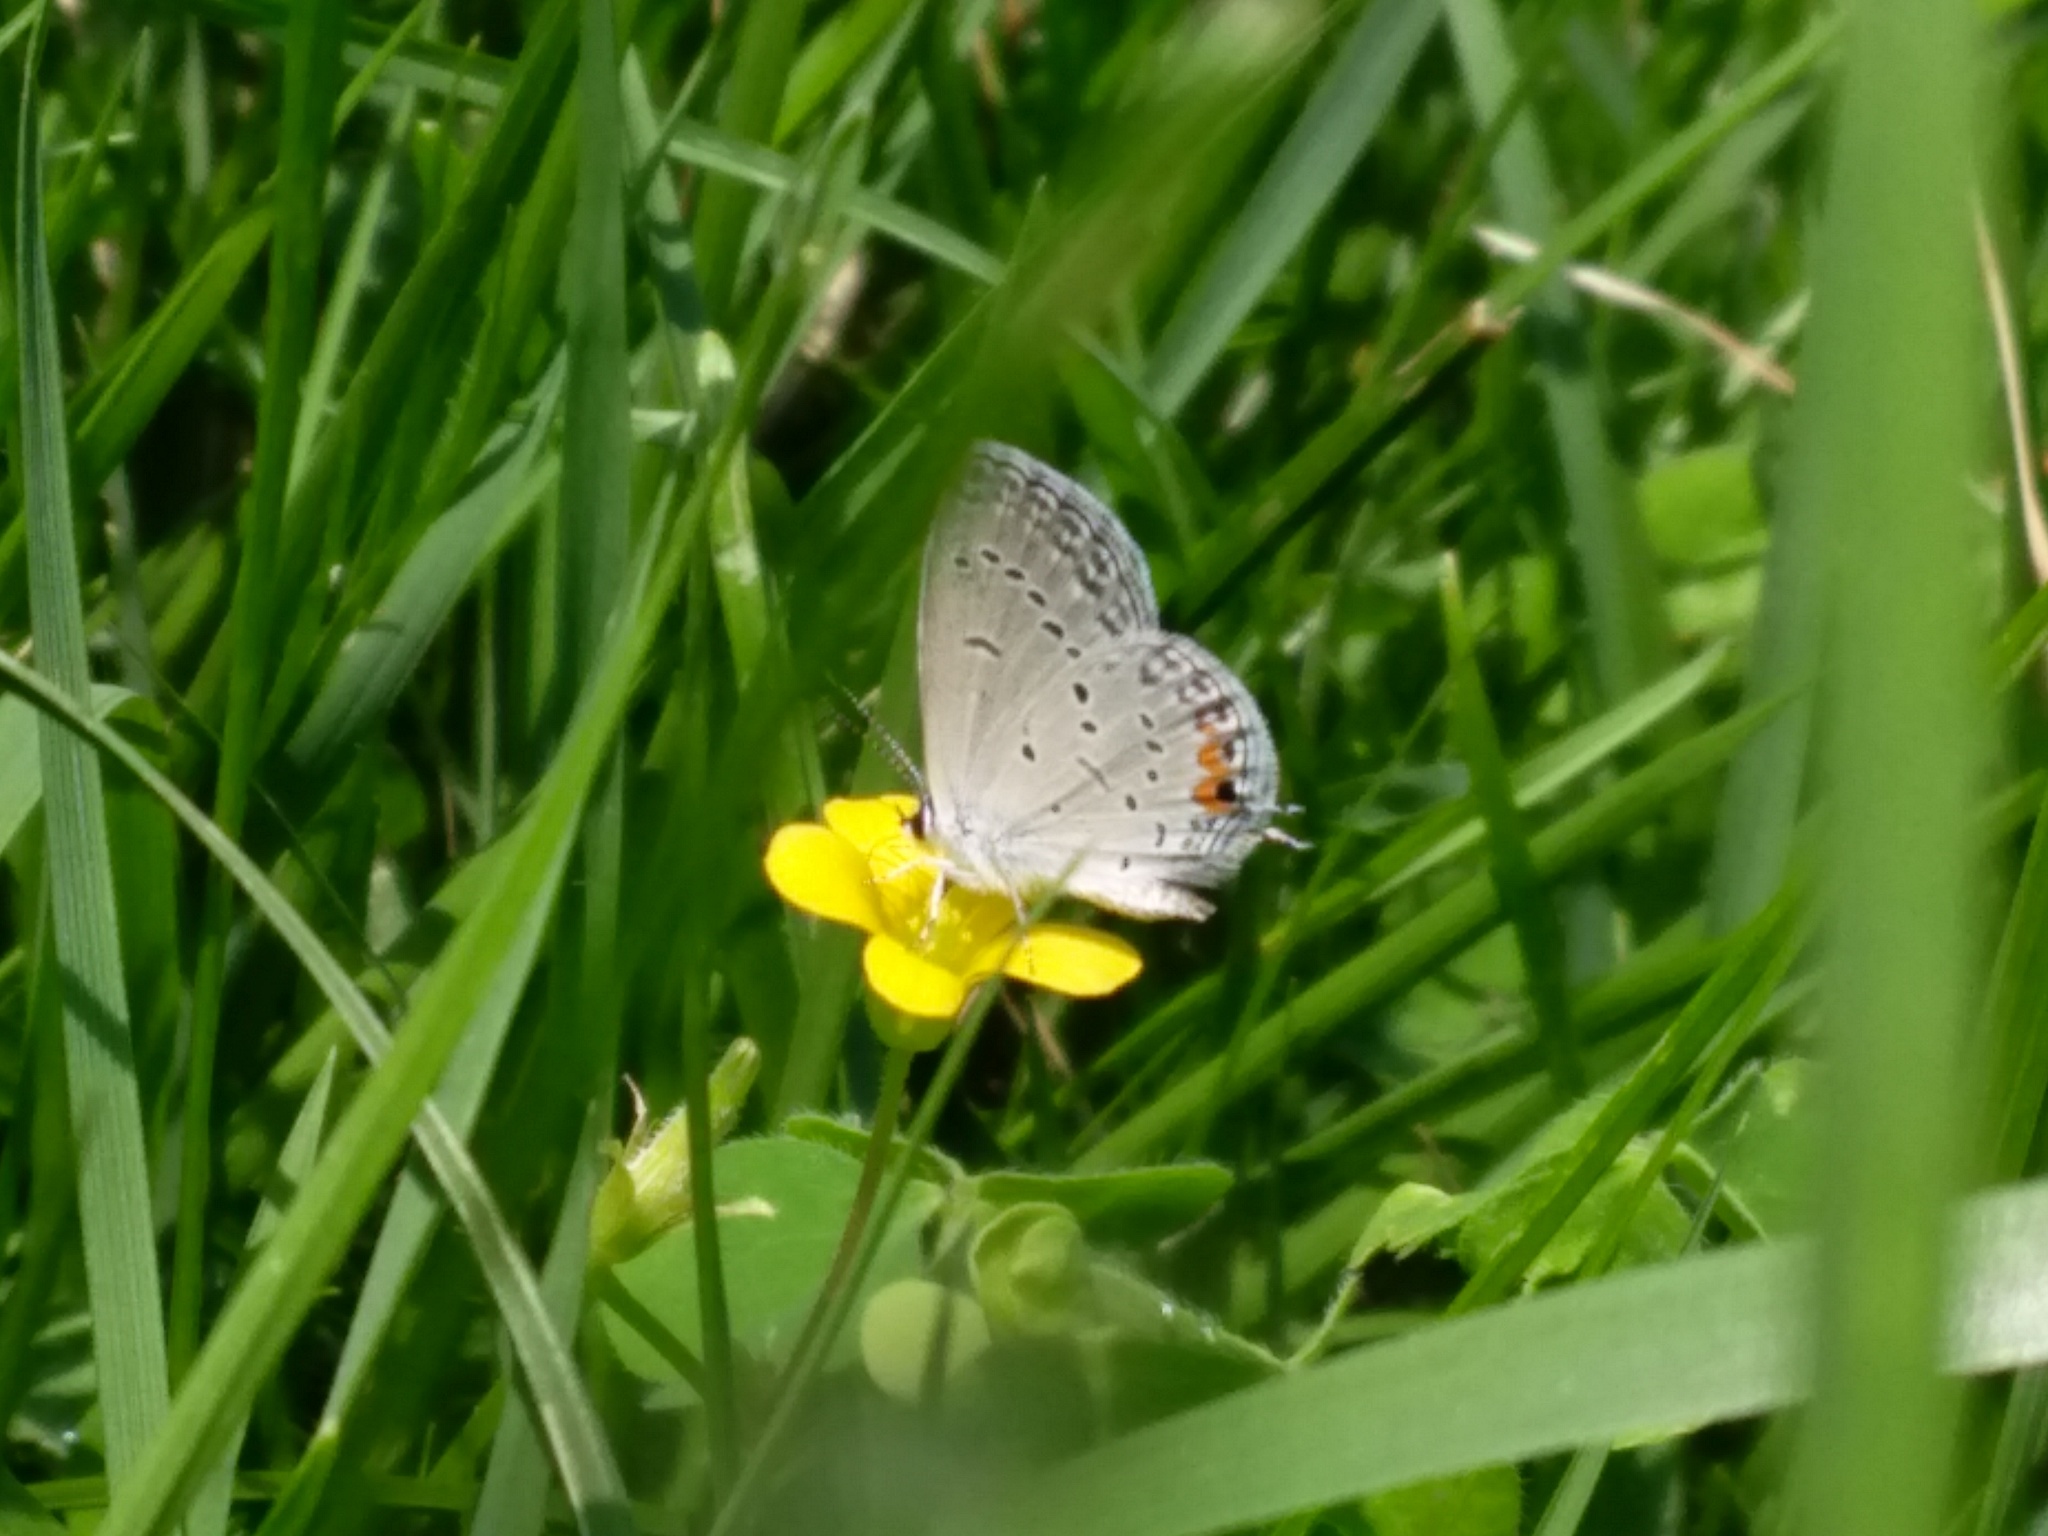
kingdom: Animalia
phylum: Arthropoda
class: Insecta
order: Lepidoptera
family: Lycaenidae
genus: Elkalyce
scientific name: Elkalyce comyntas
